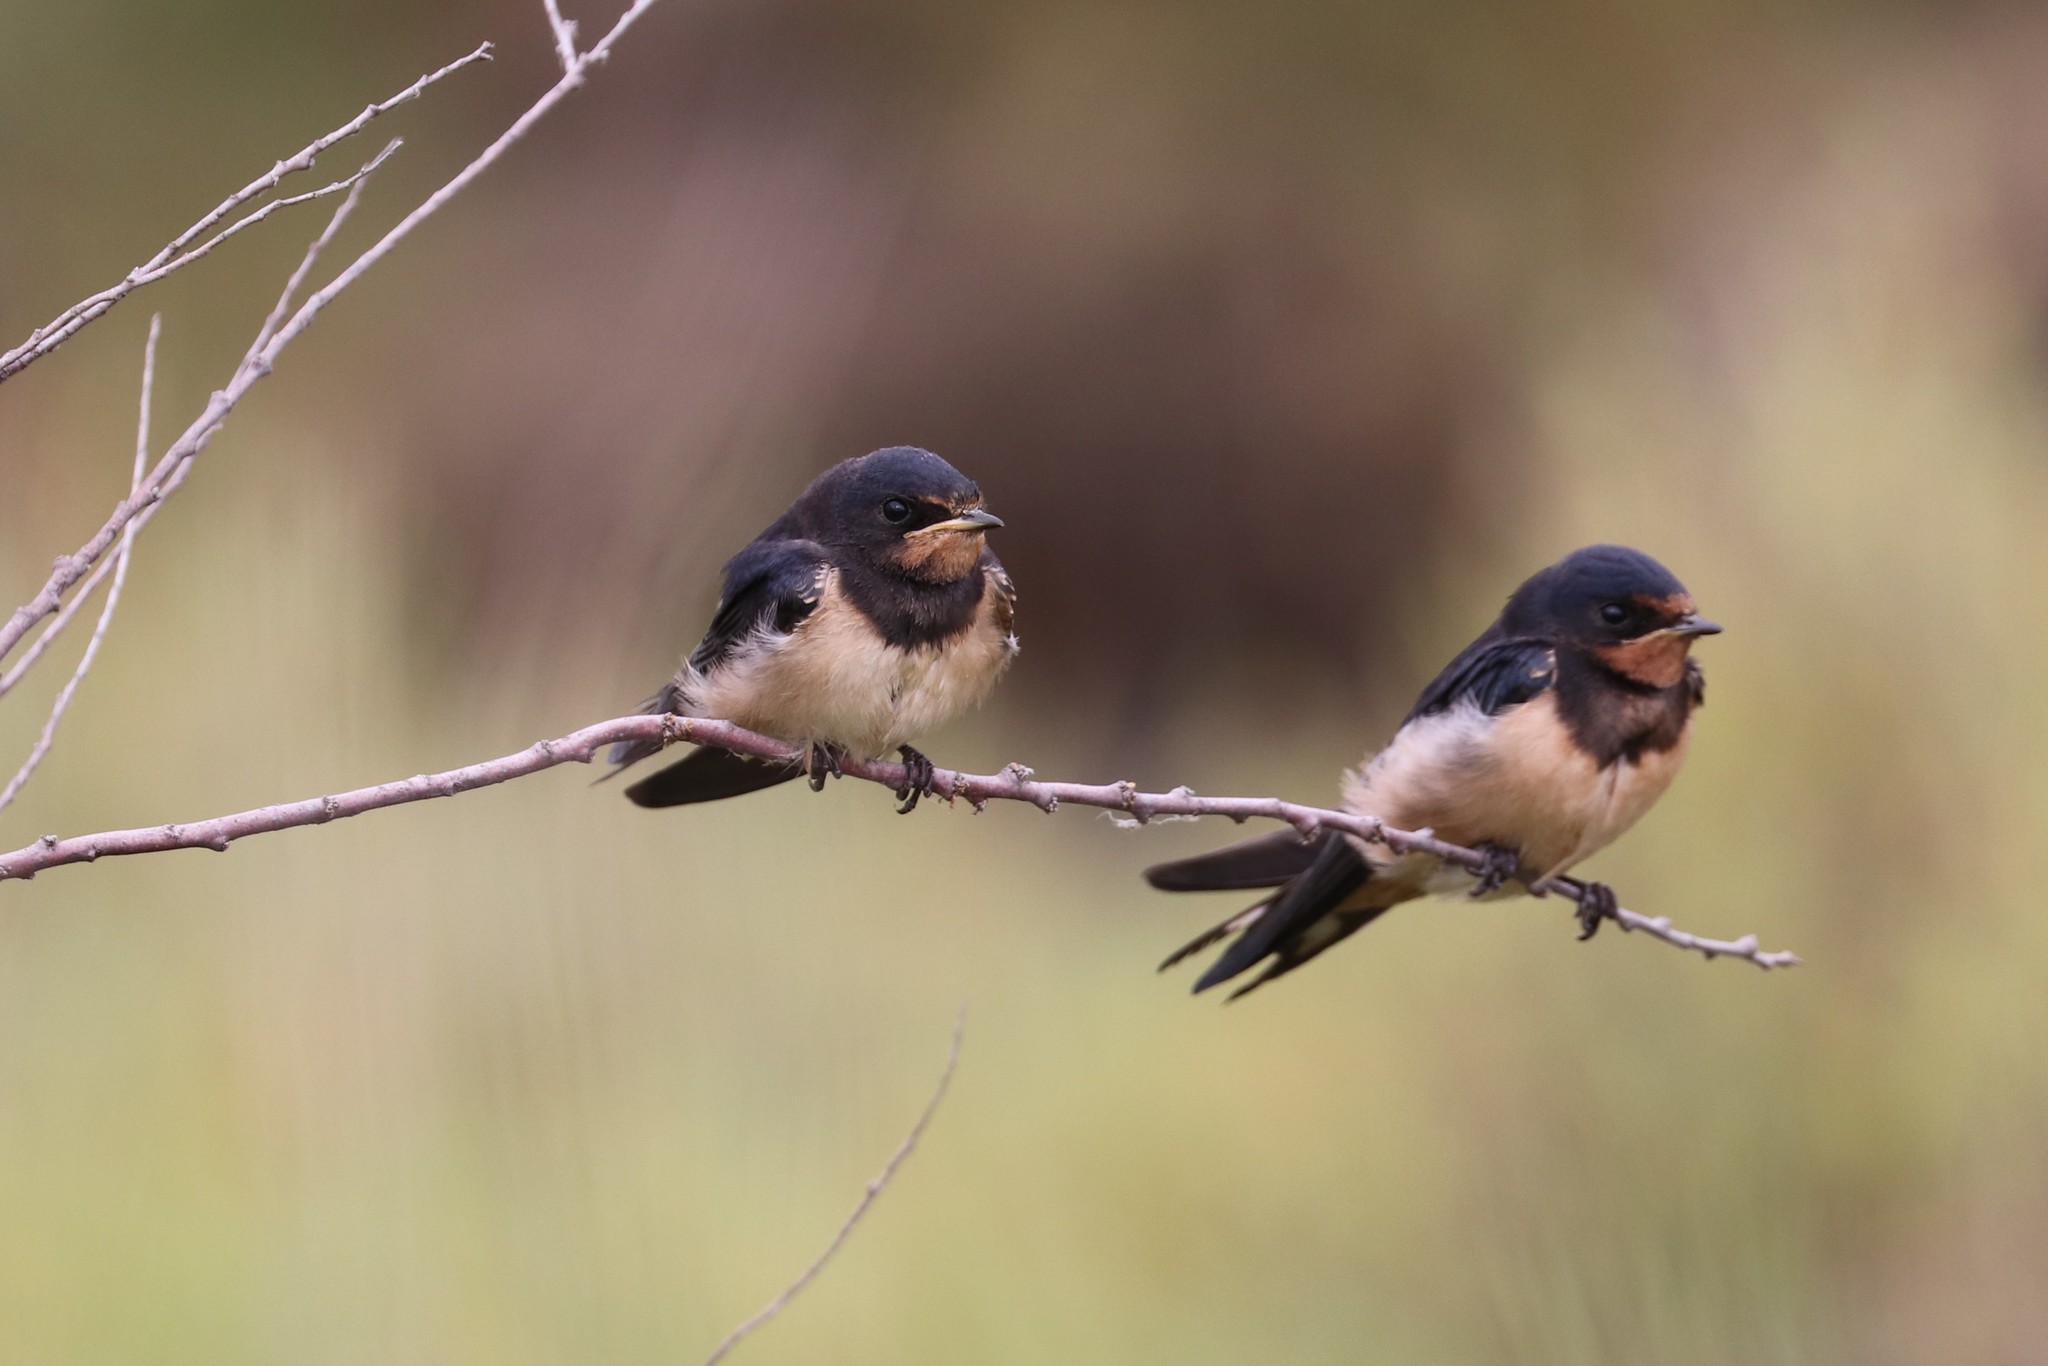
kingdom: Animalia
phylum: Chordata
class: Aves
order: Passeriformes
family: Hirundinidae
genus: Hirundo
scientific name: Hirundo rustica
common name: Barn swallow
